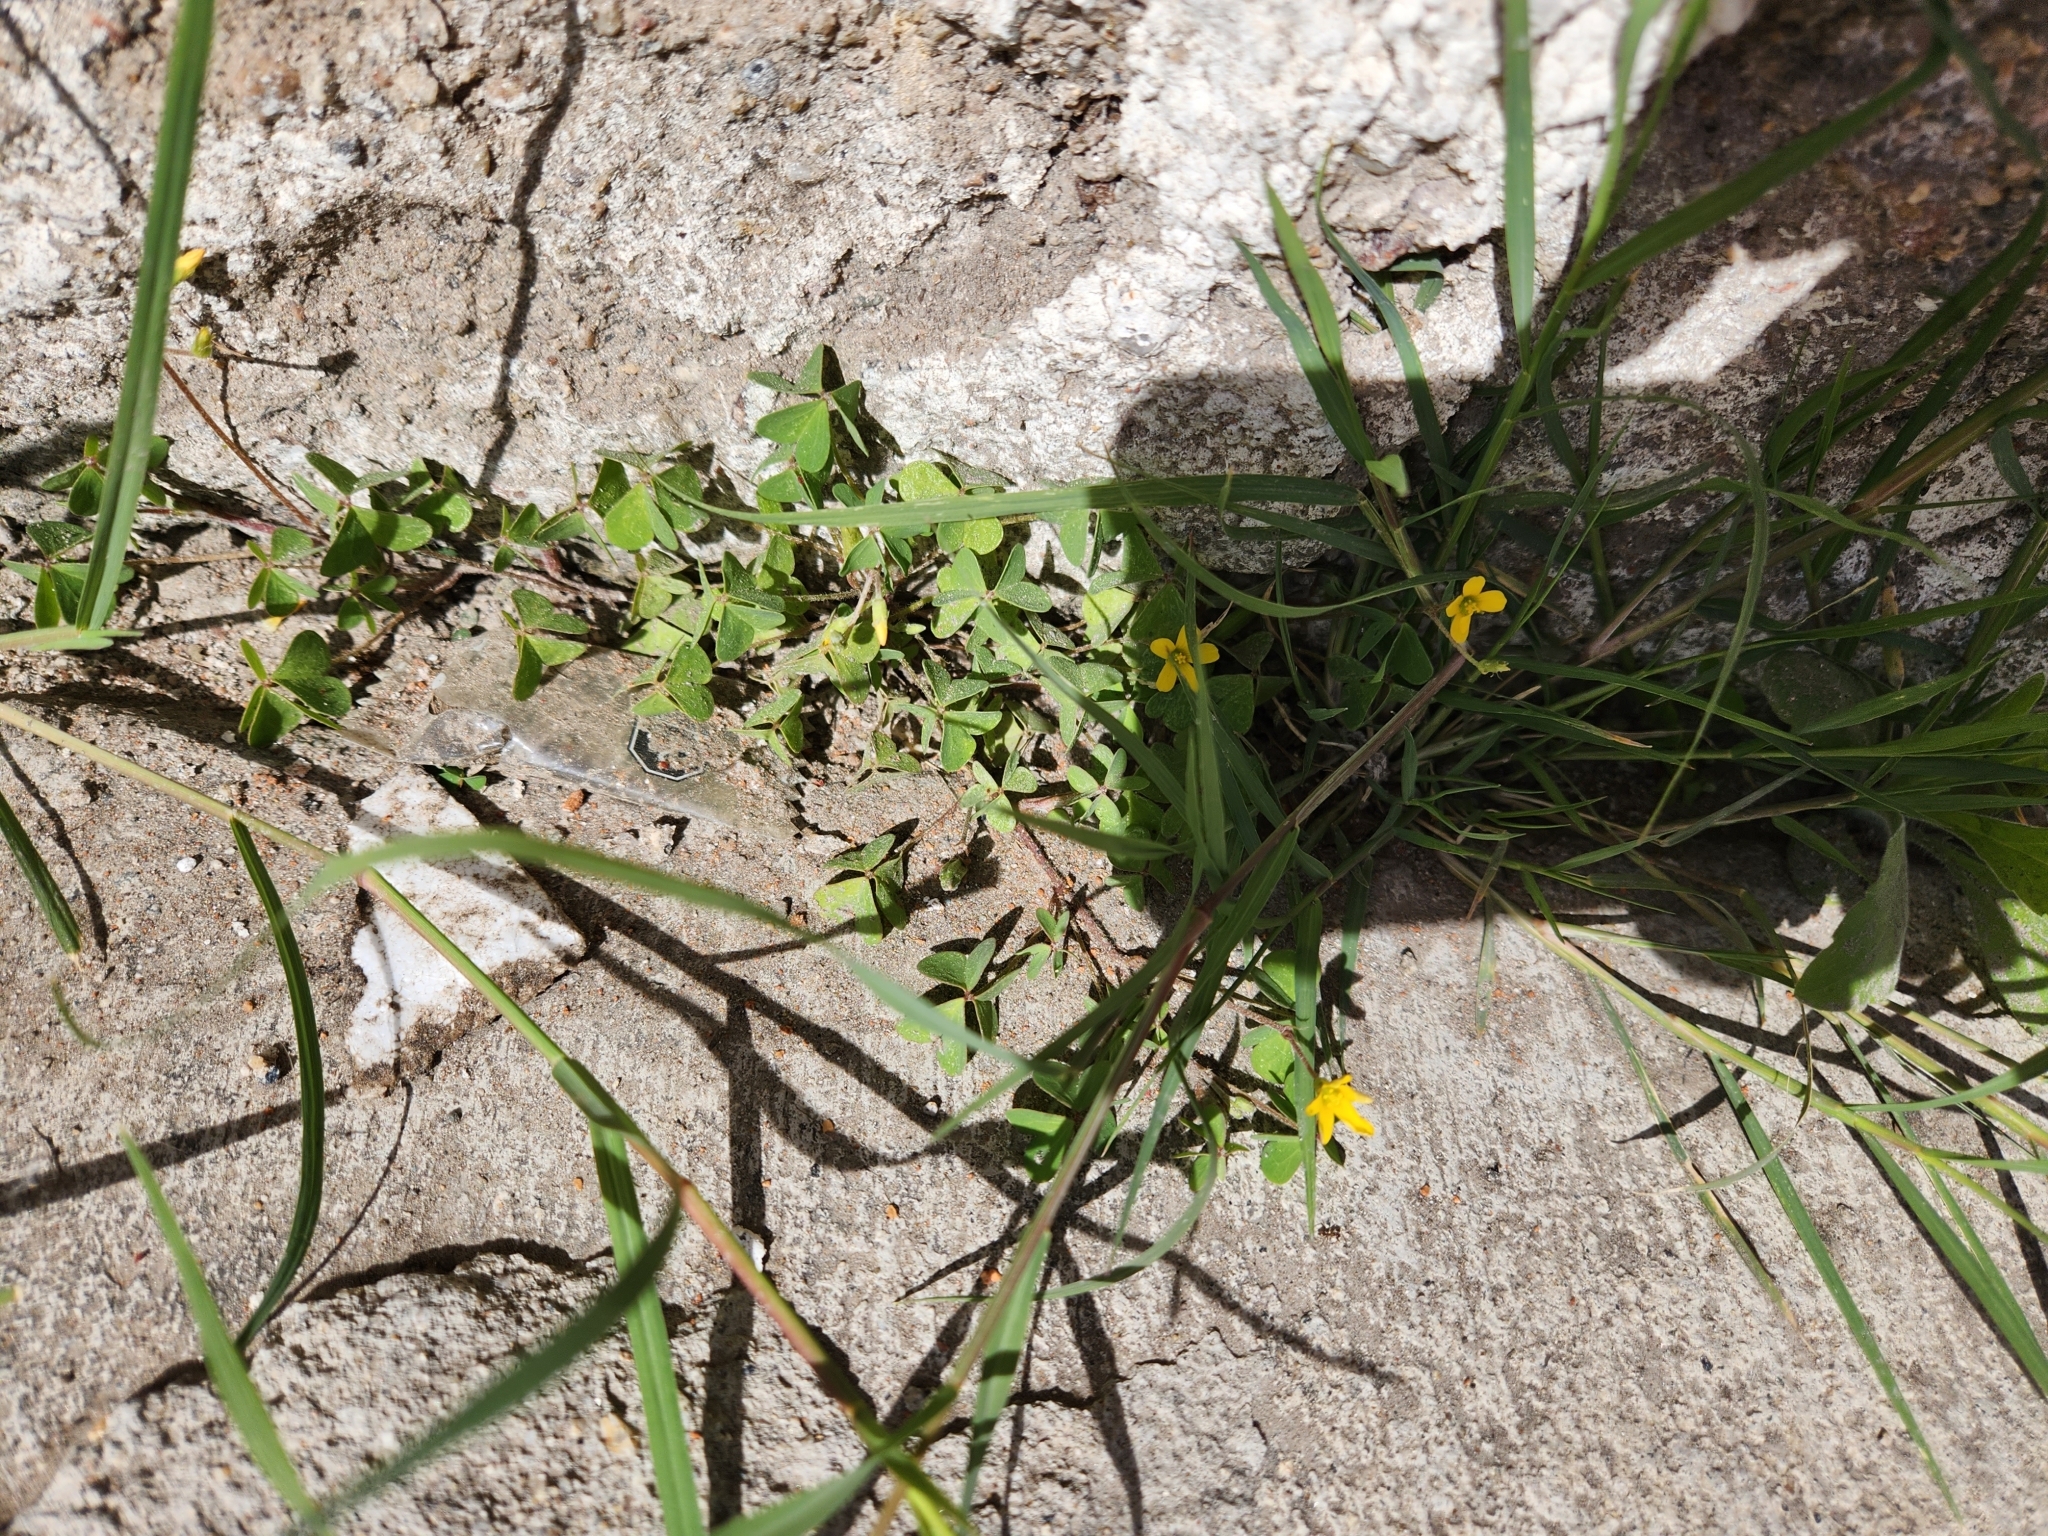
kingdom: Plantae
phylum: Tracheophyta
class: Magnoliopsida
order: Oxalidales
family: Oxalidaceae
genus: Oxalis
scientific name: Oxalis corniculata
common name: Procumbent yellow-sorrel
